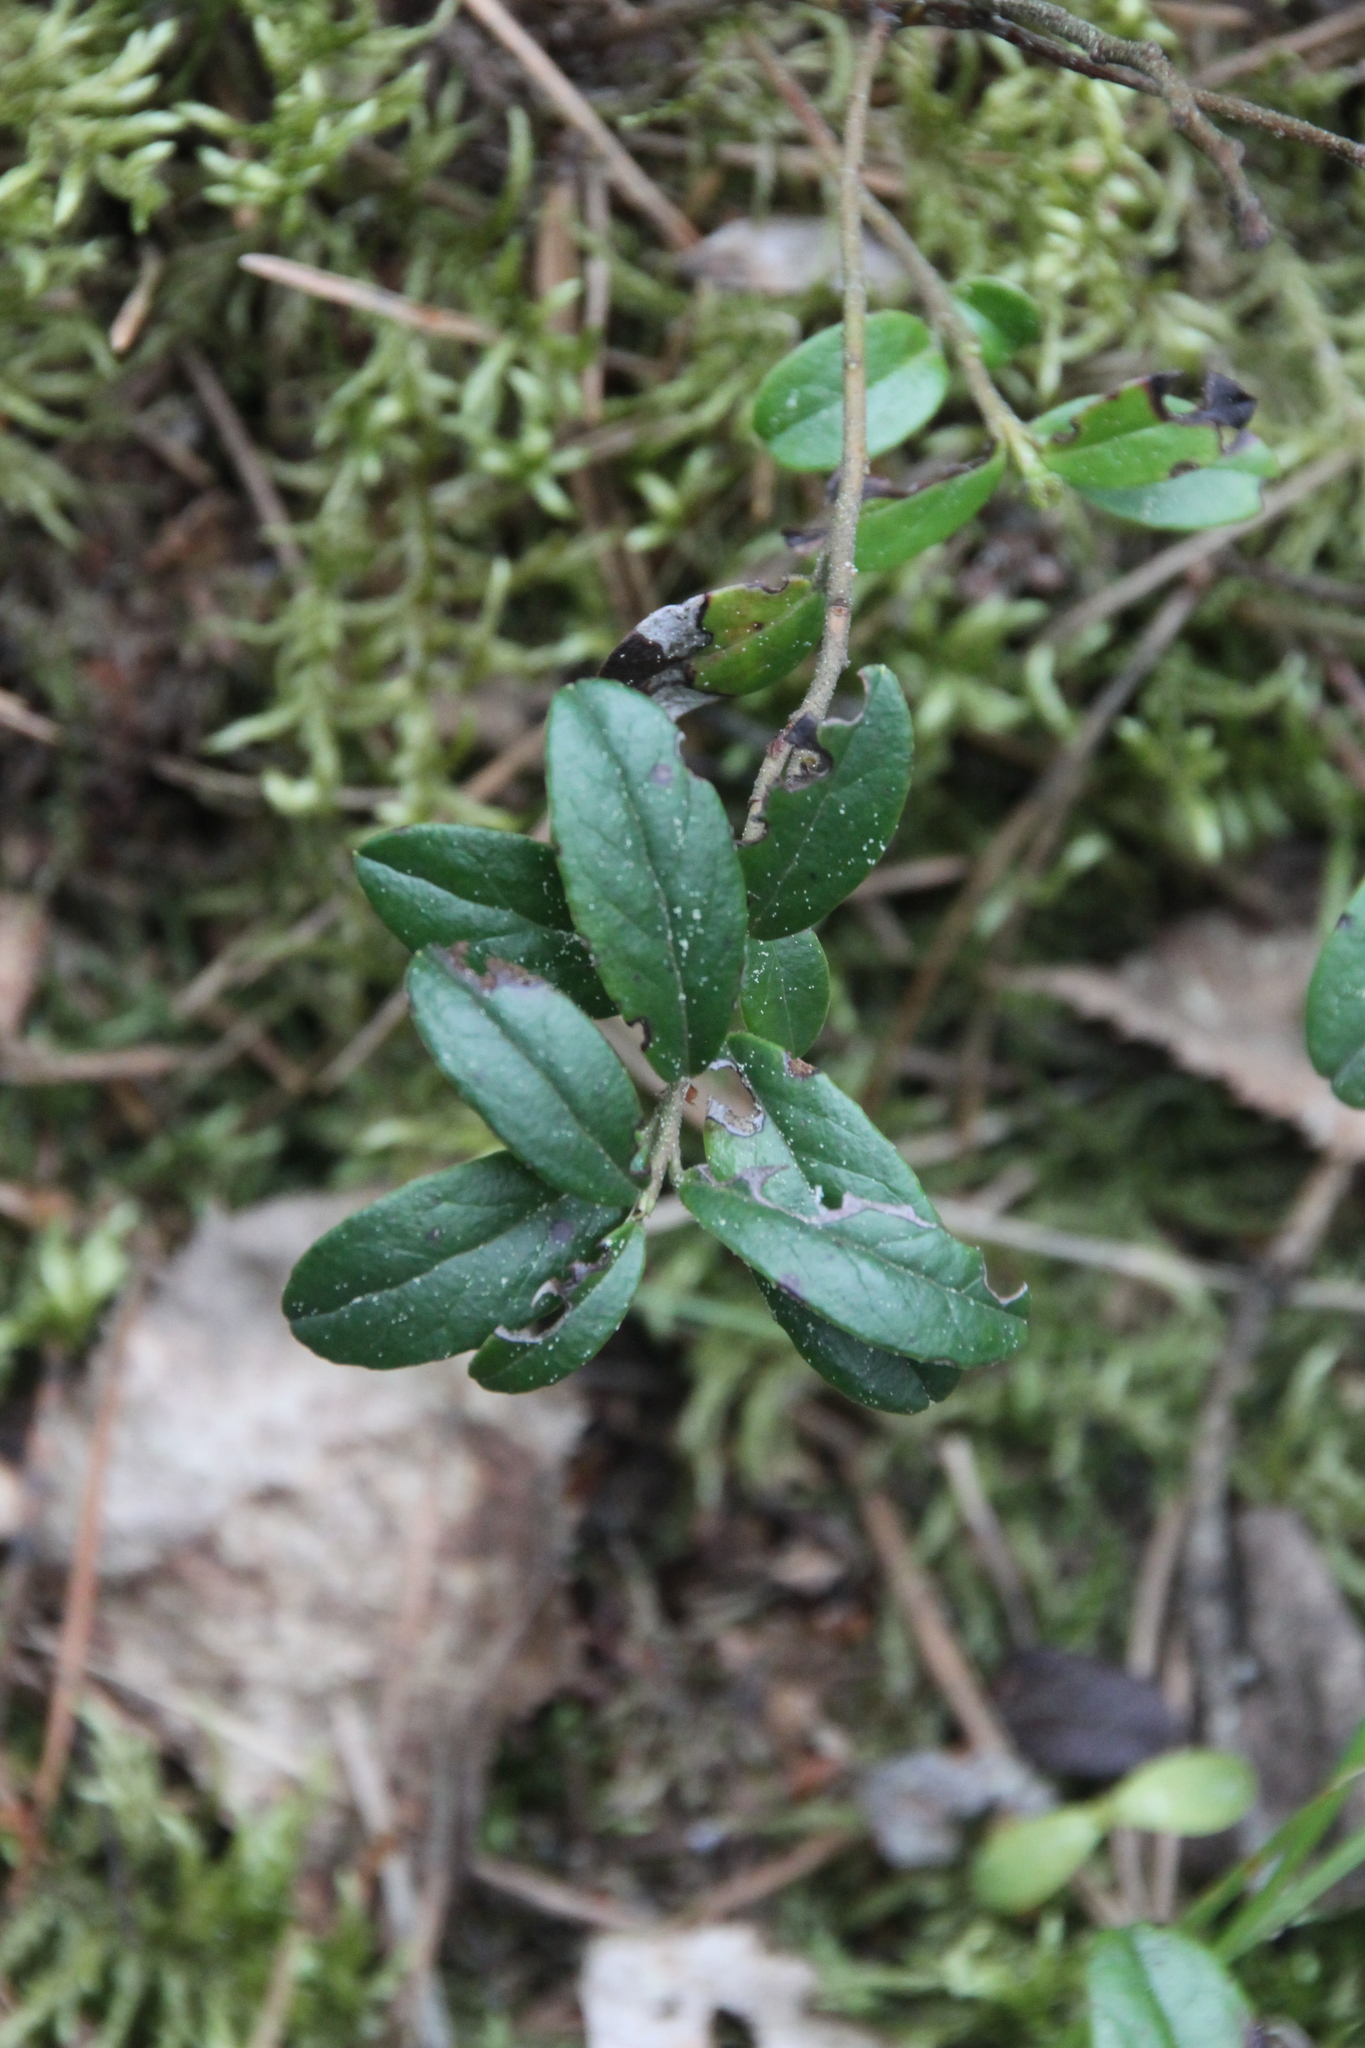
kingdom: Plantae
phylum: Tracheophyta
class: Magnoliopsida
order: Ericales
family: Ericaceae
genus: Vaccinium
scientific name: Vaccinium vitis-idaea
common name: Cowberry
